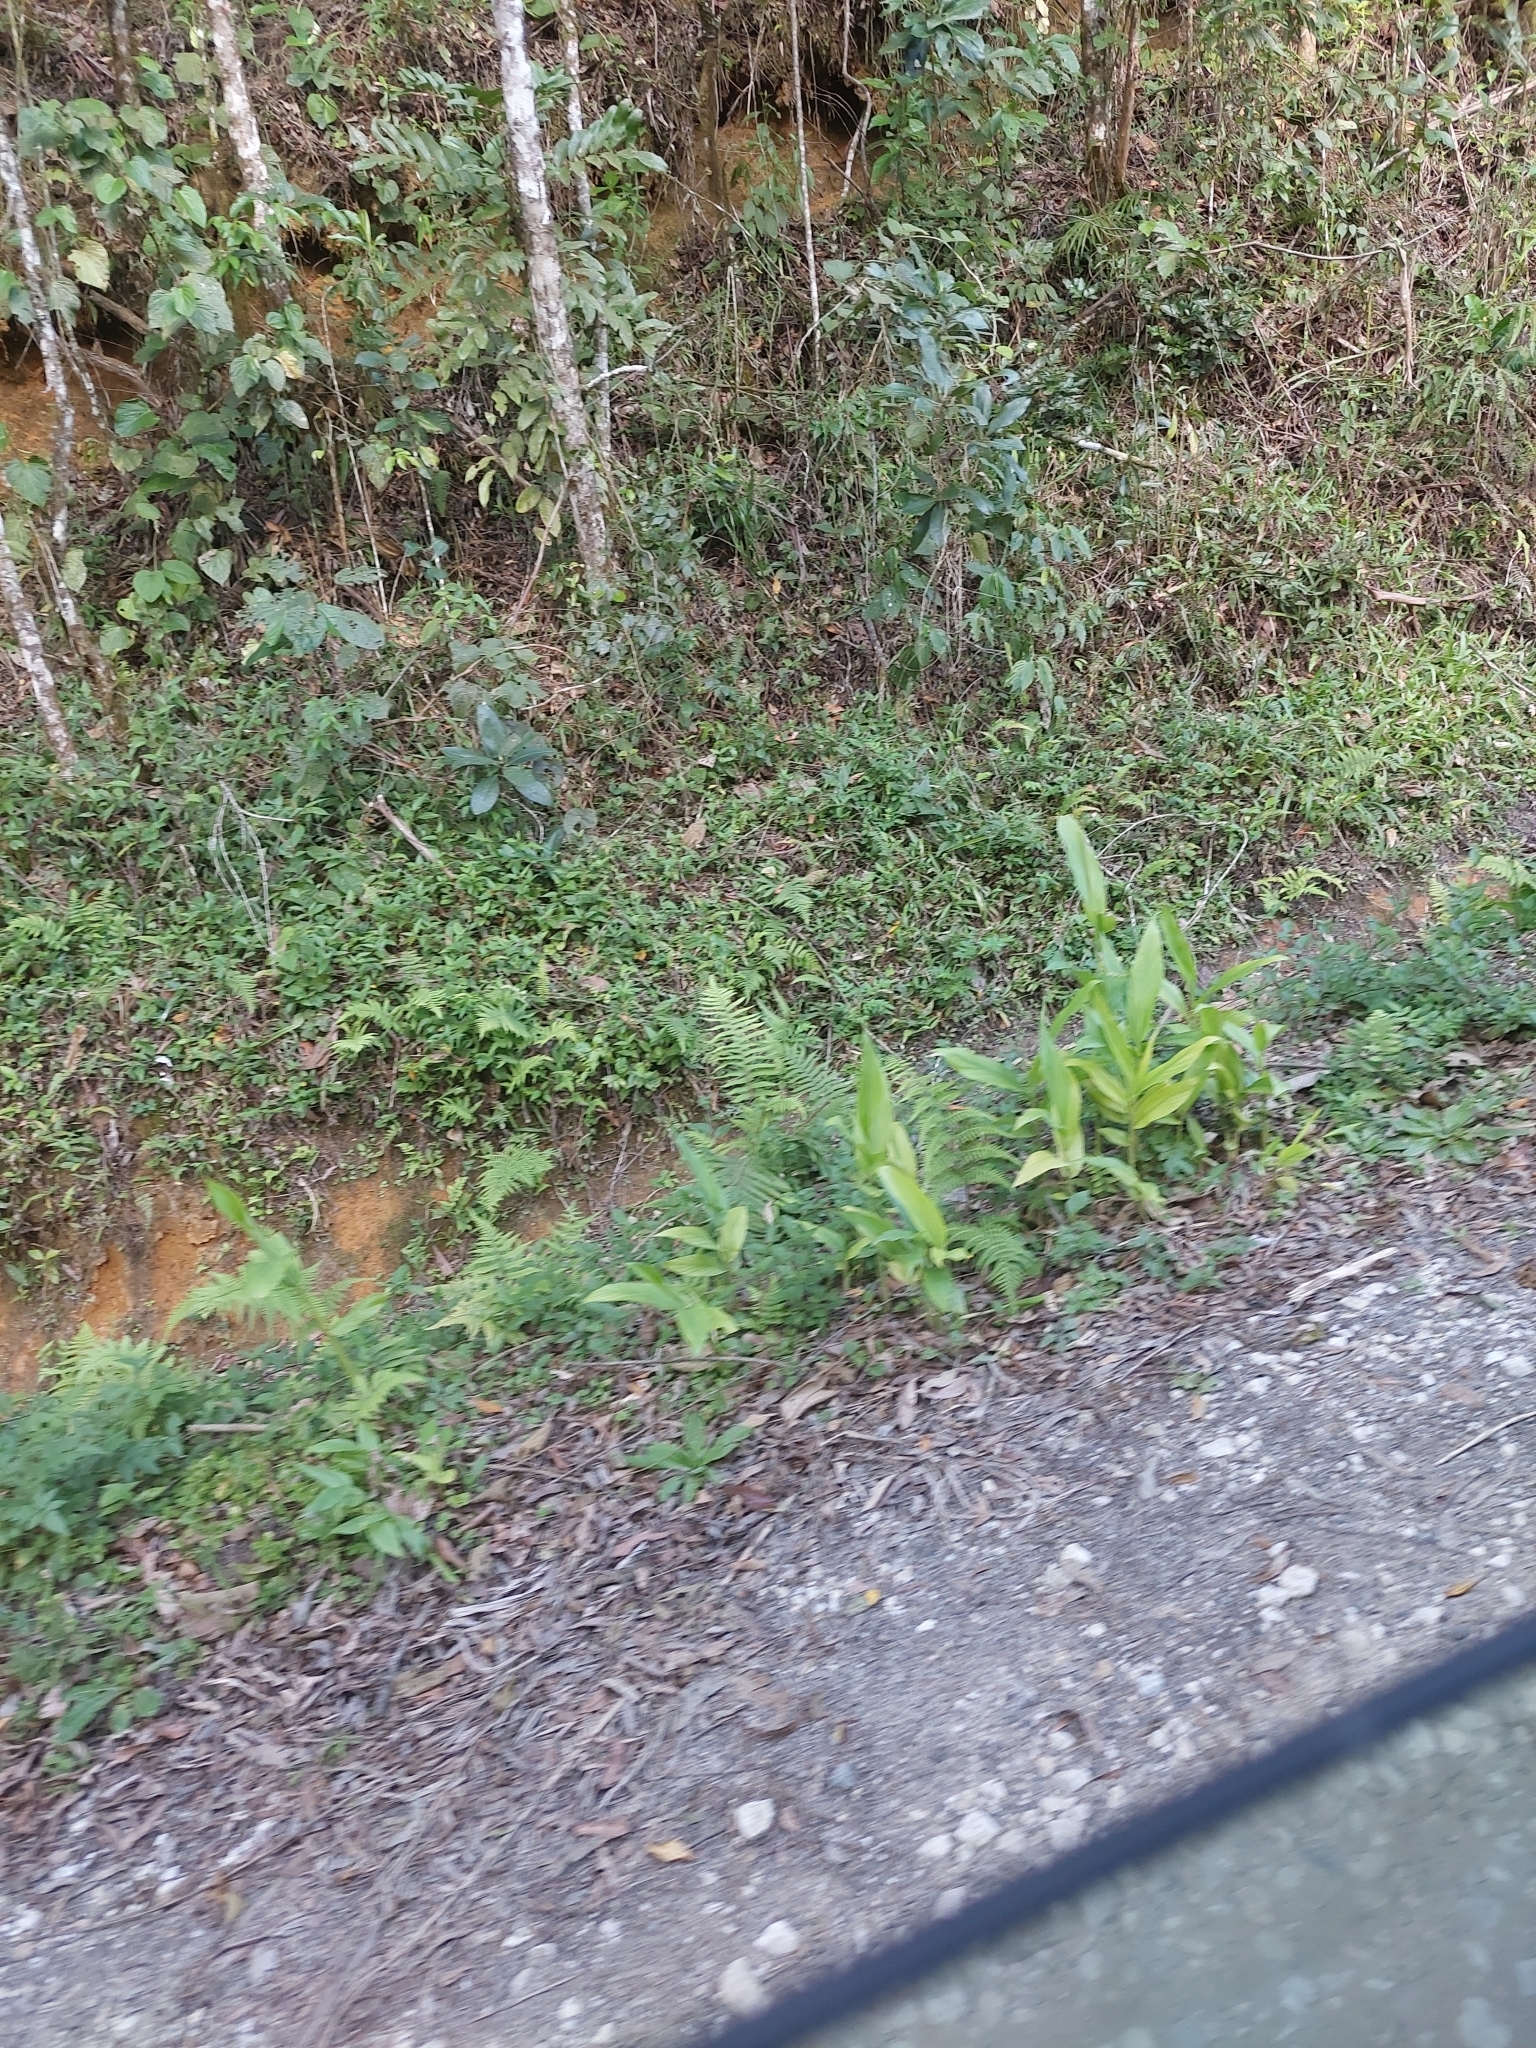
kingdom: Plantae
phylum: Tracheophyta
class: Liliopsida
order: Zingiberales
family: Zingiberaceae
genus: Hedychium
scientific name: Hedychium coronarium
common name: White garland-lily
